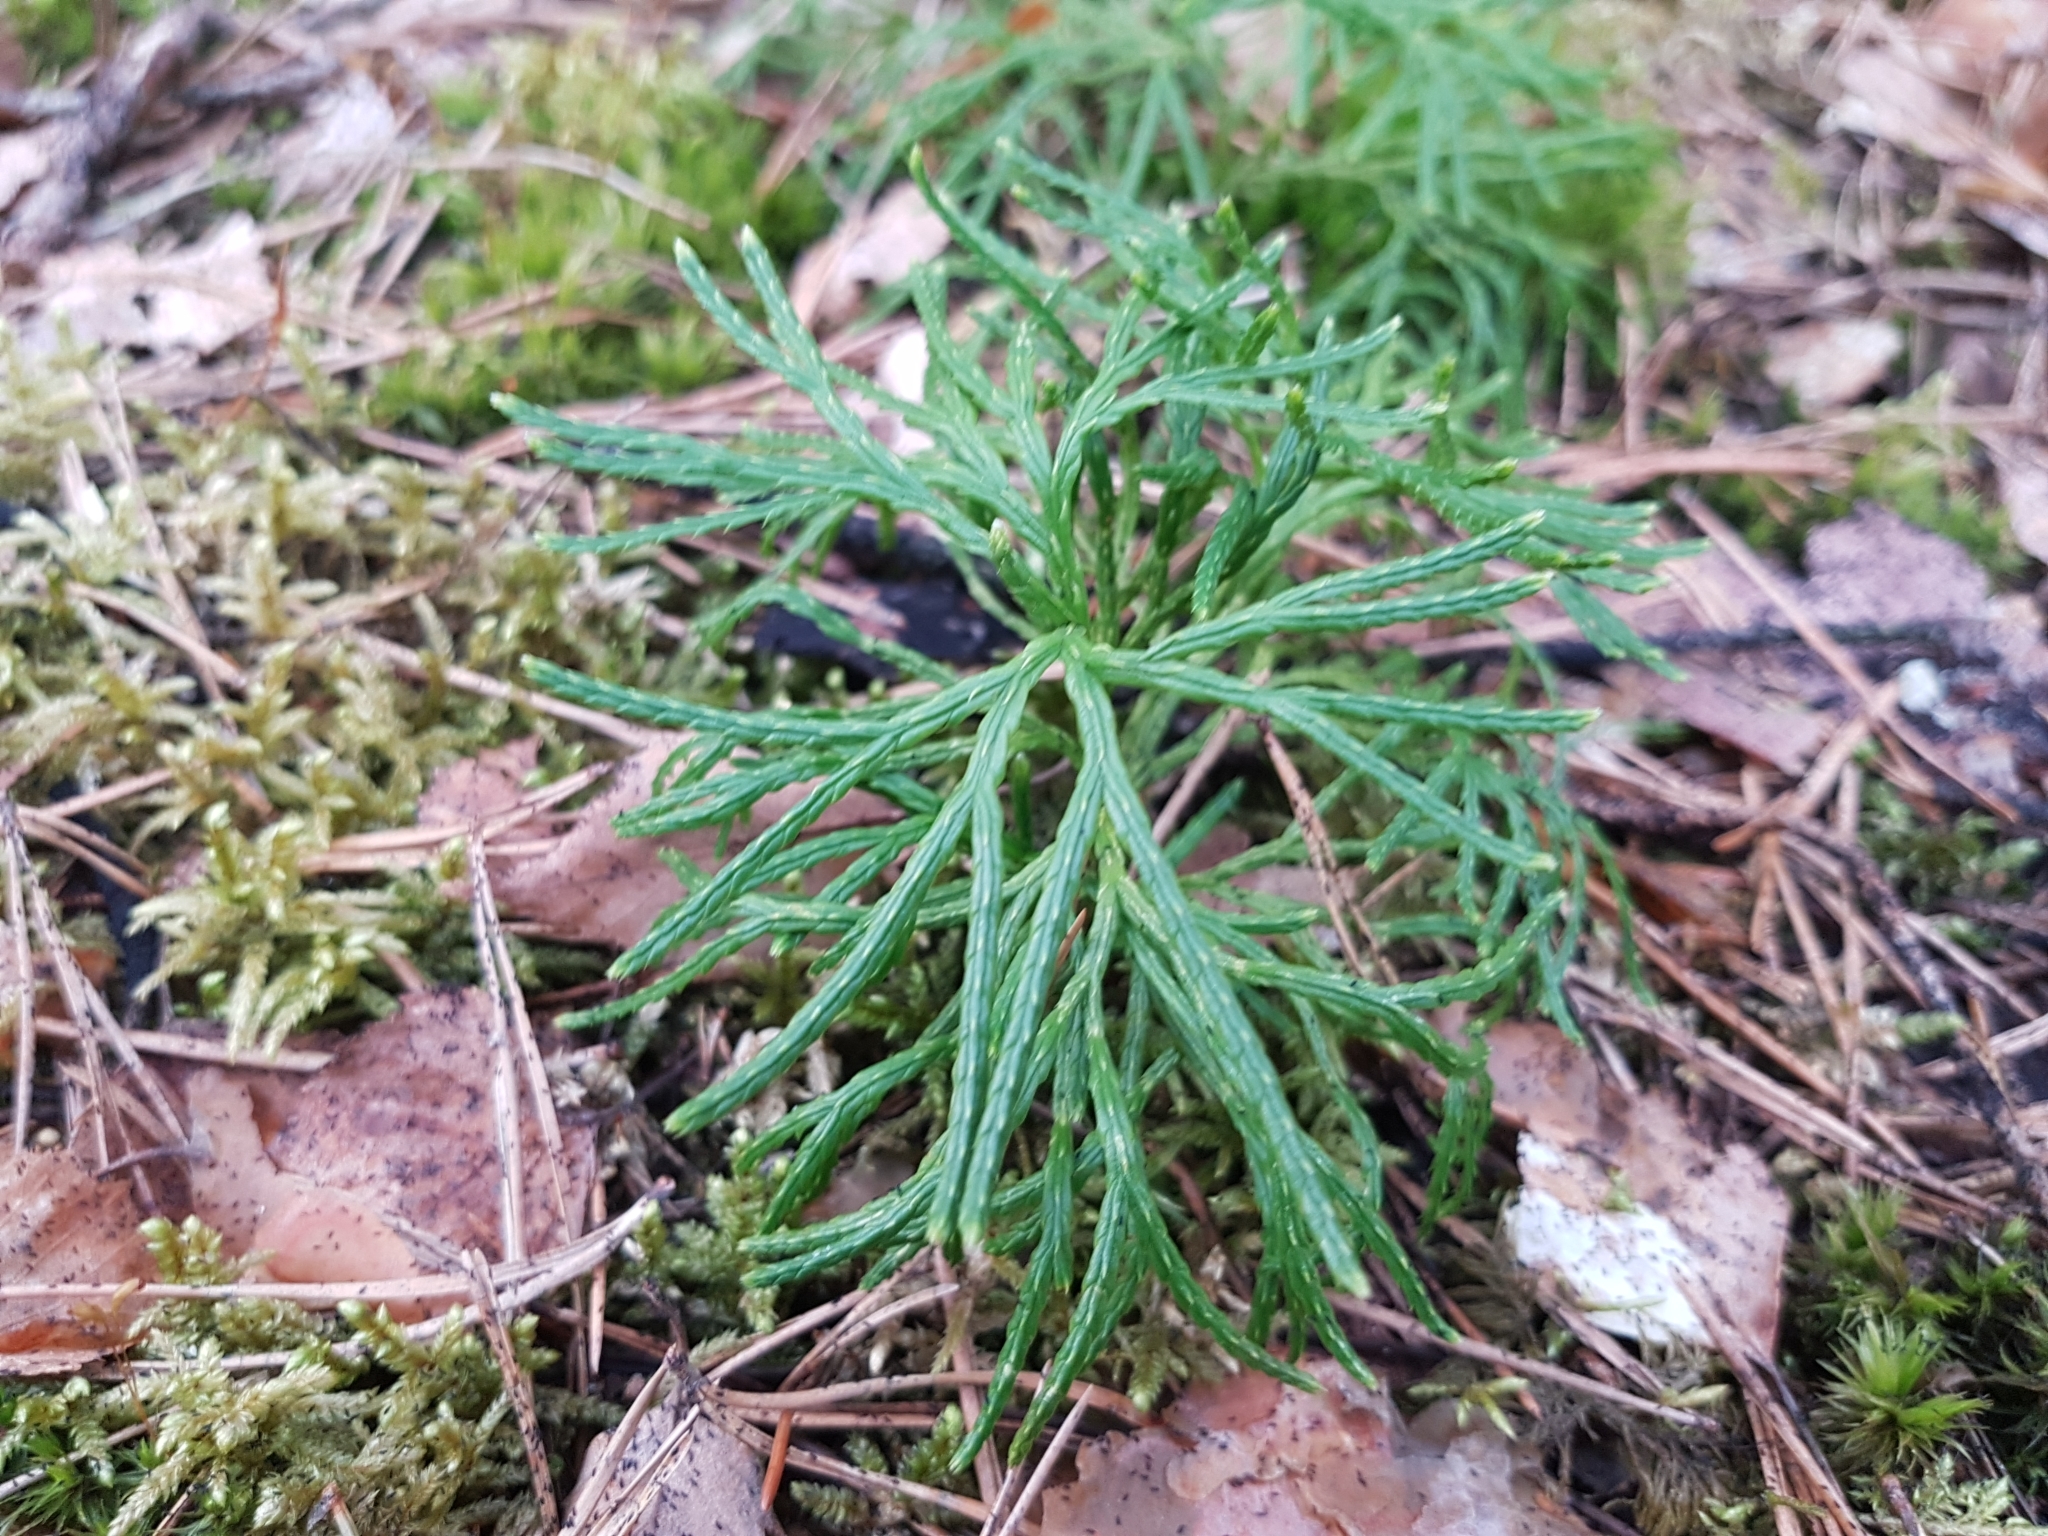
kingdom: Plantae
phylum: Tracheophyta
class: Lycopodiopsida
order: Lycopodiales
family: Lycopodiaceae
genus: Diphasiastrum
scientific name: Diphasiastrum complanatum
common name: Northern running-pine
